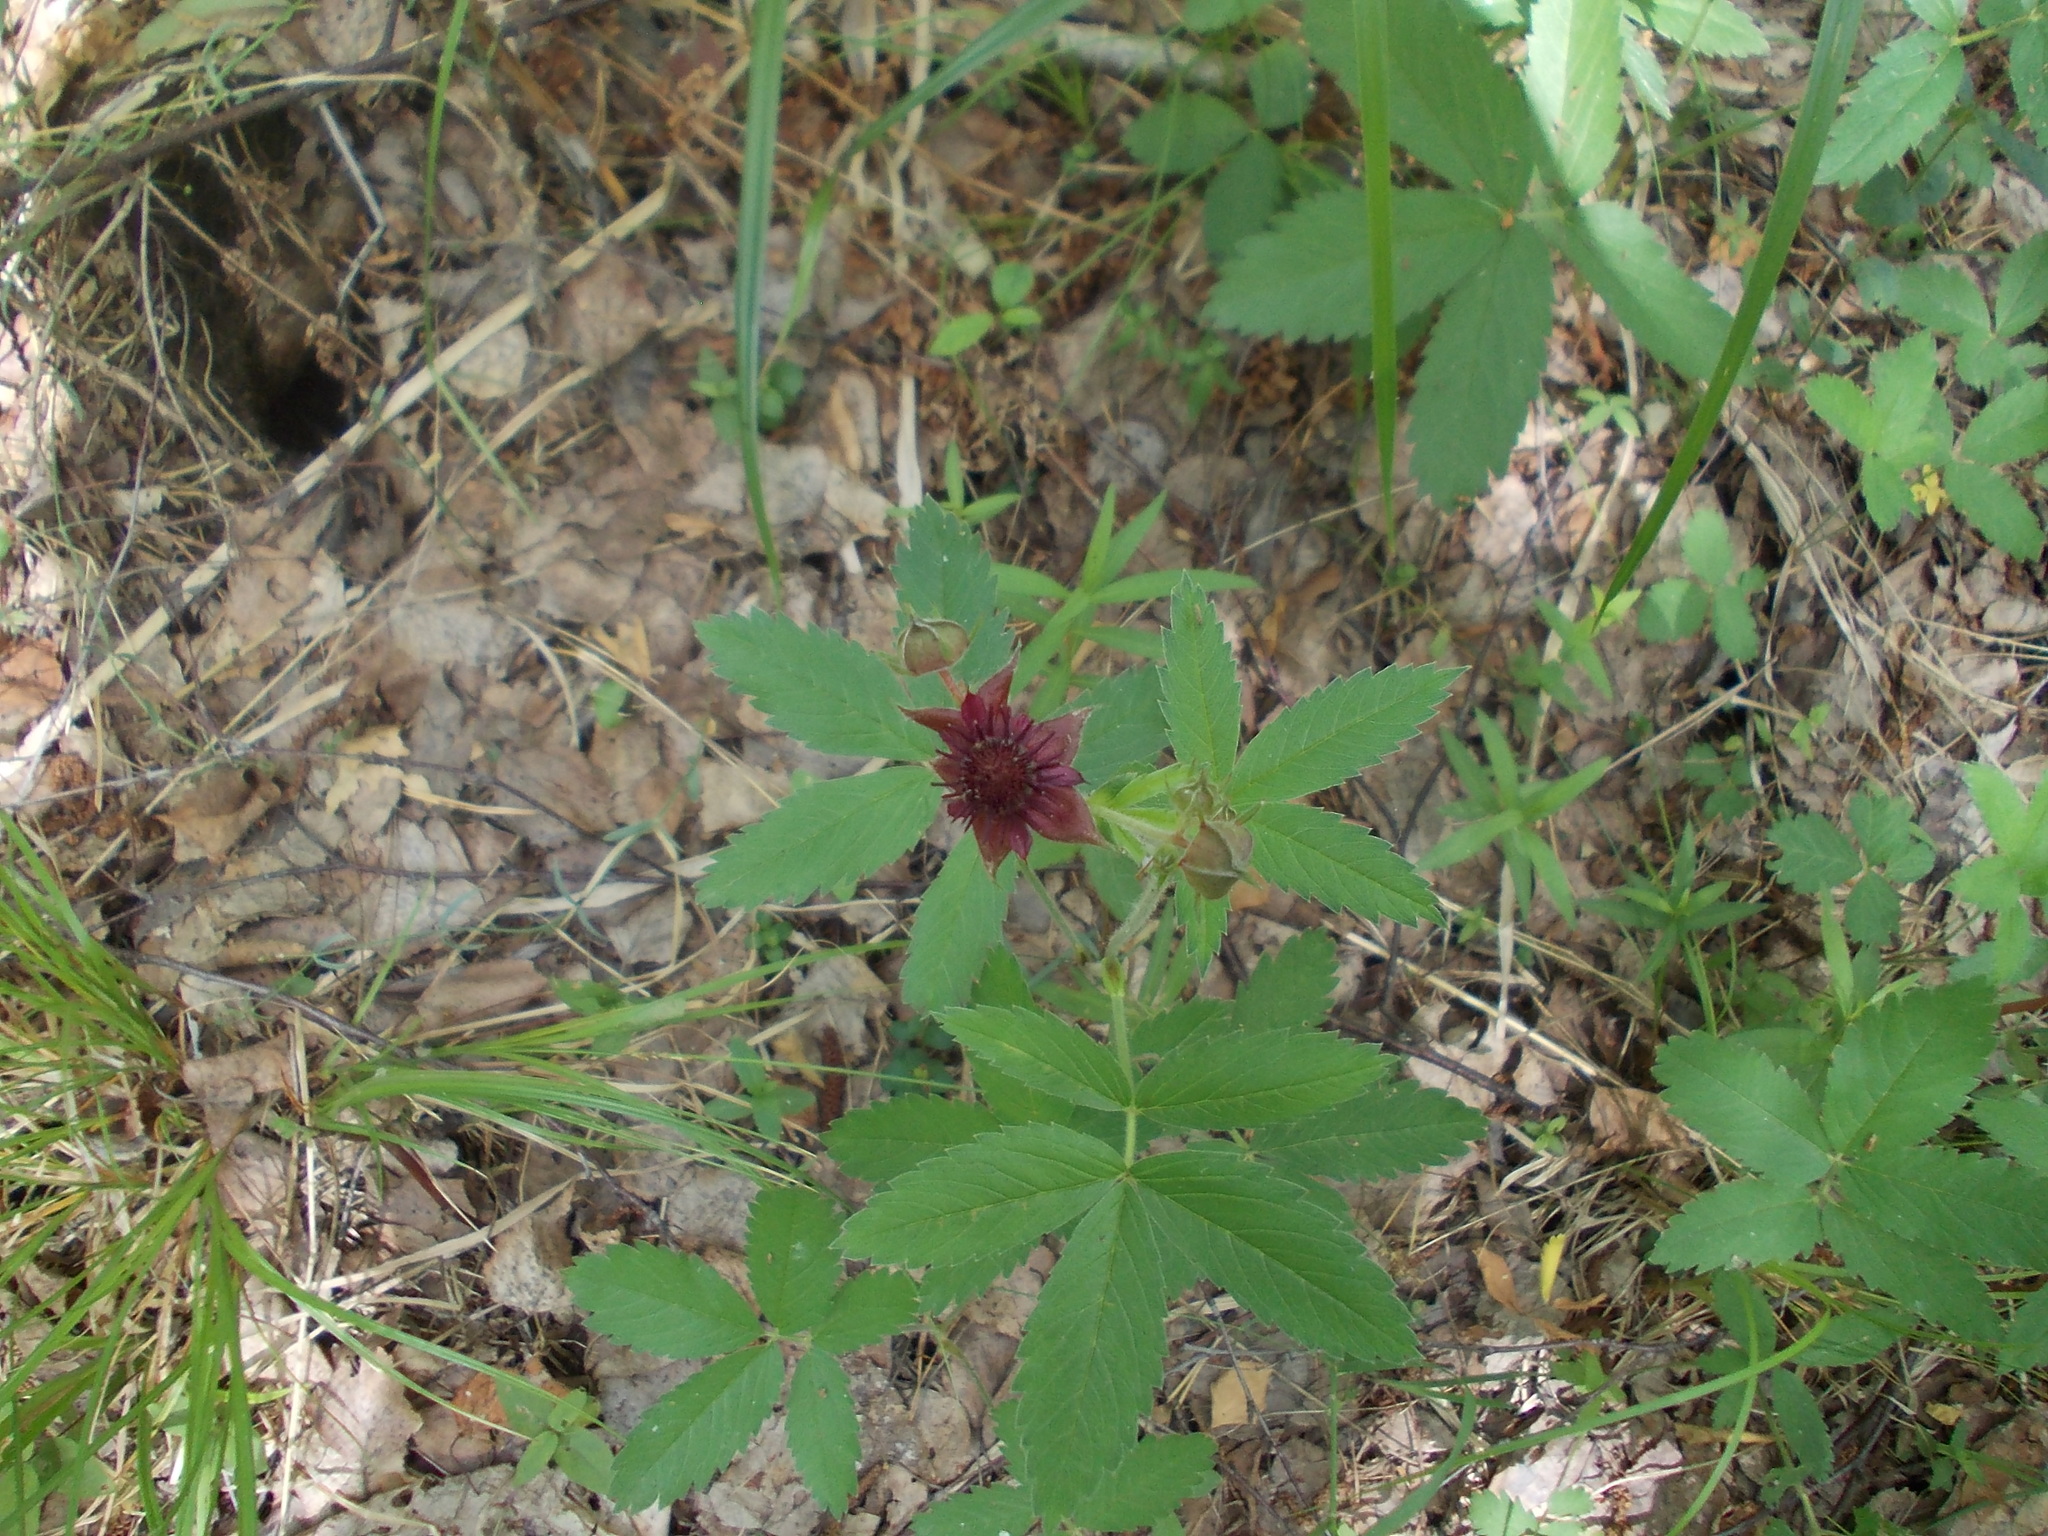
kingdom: Plantae
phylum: Tracheophyta
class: Magnoliopsida
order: Rosales
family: Rosaceae
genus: Comarum
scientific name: Comarum palustre
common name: Marsh cinquefoil
